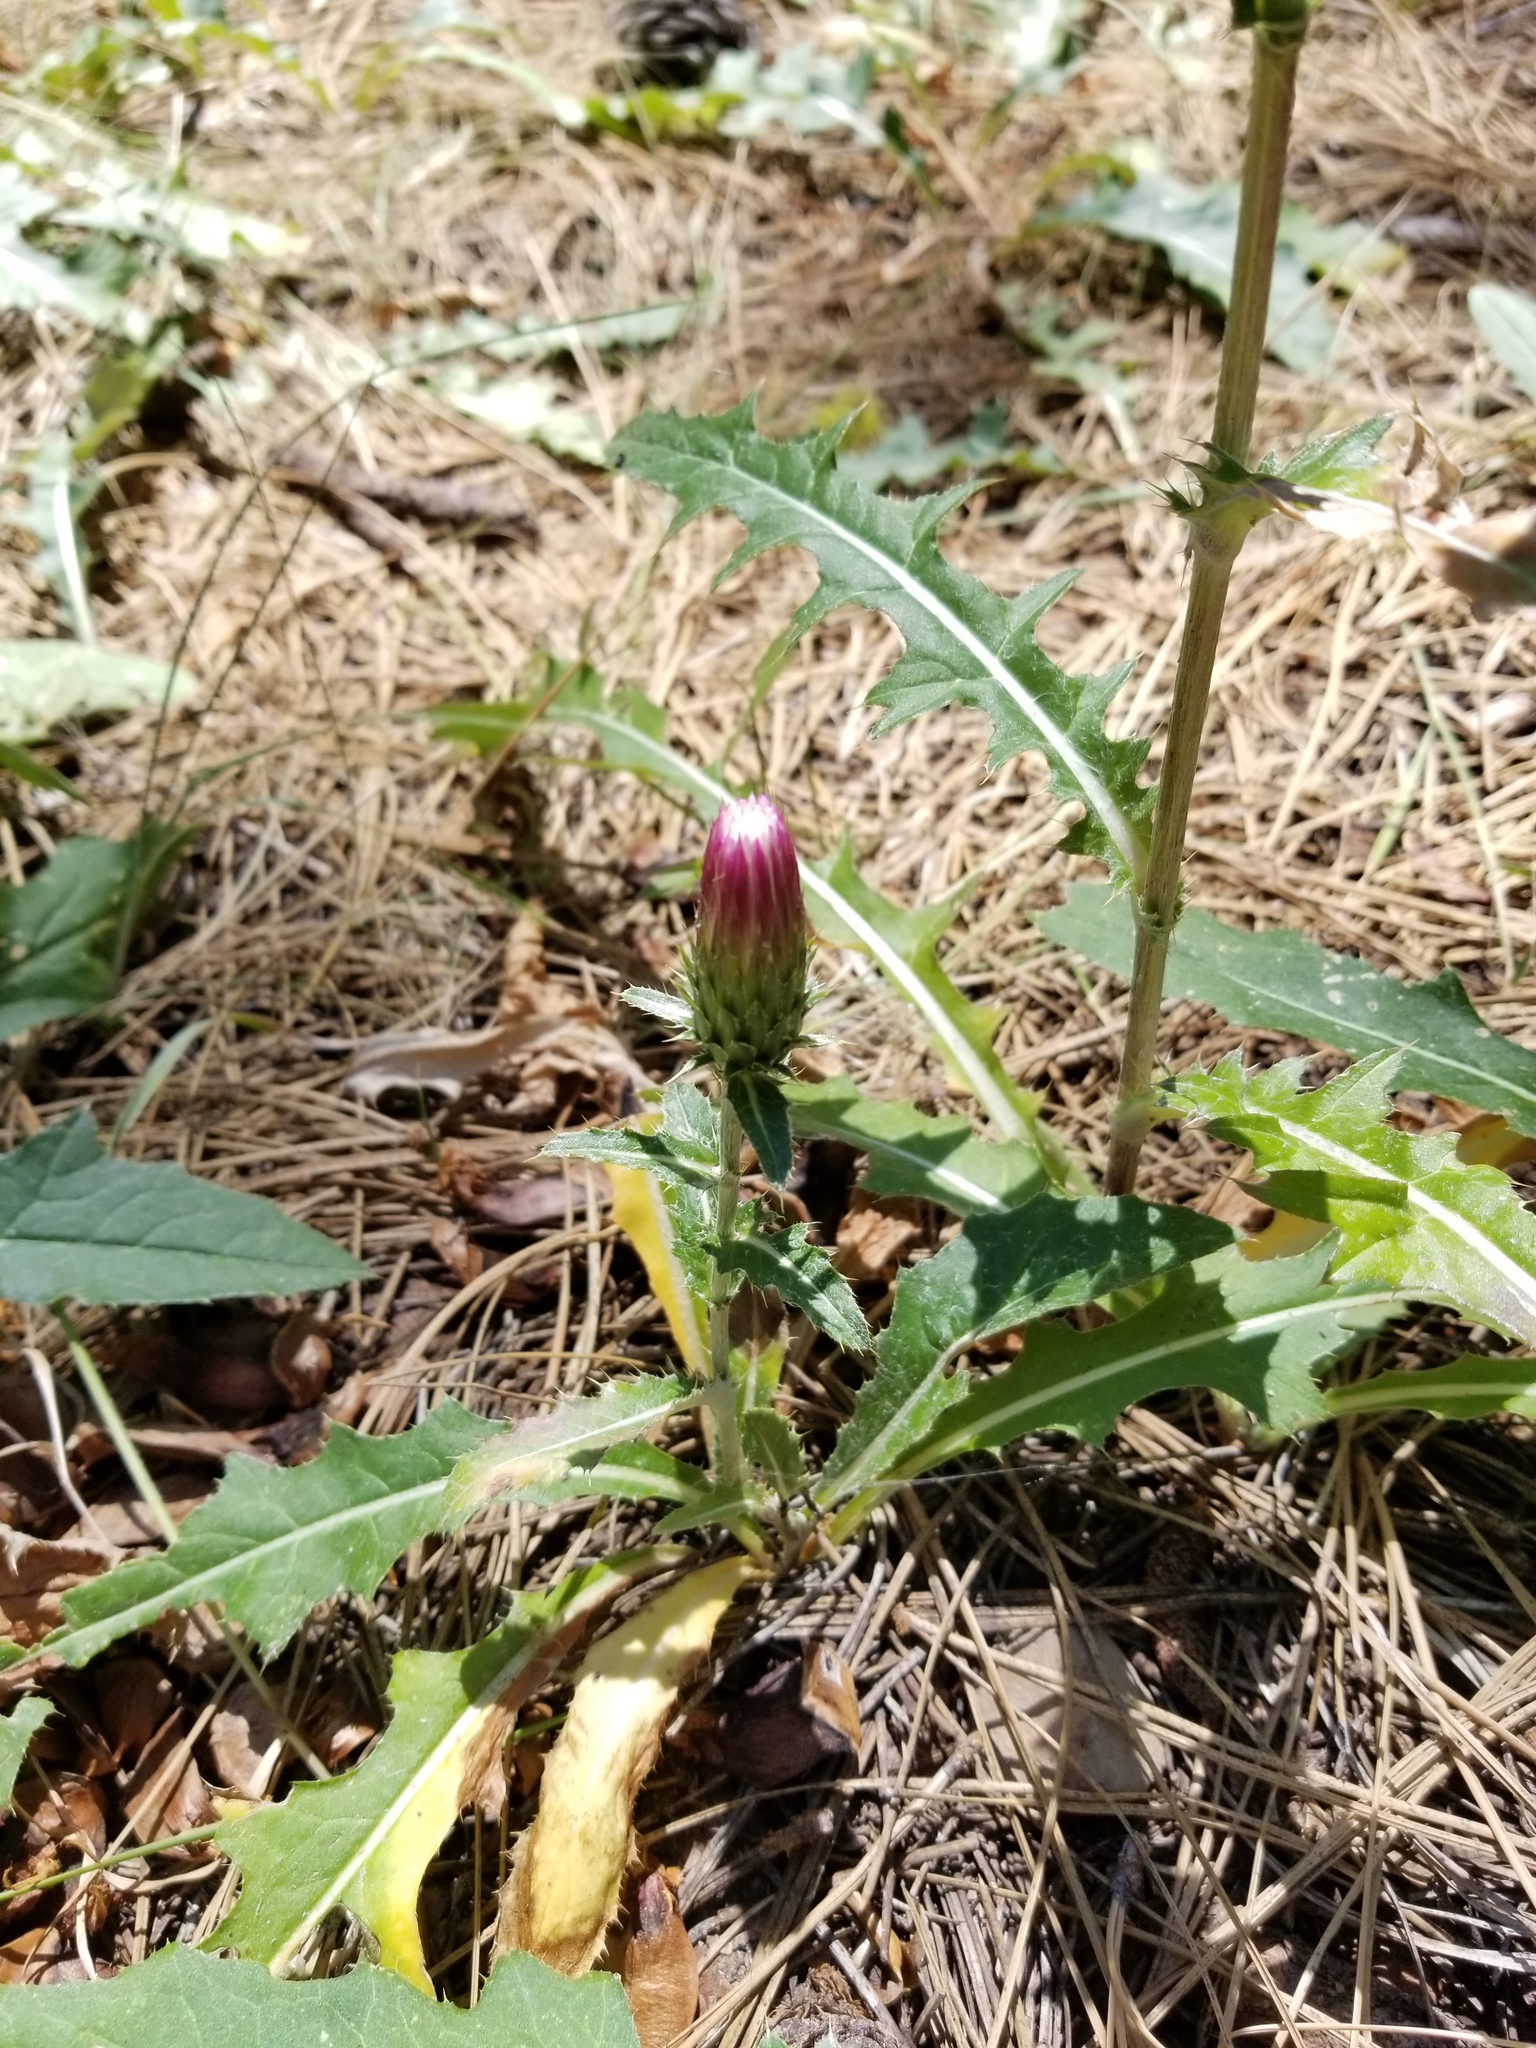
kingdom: Plantae
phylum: Tracheophyta
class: Magnoliopsida
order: Asterales
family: Asteraceae
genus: Cirsium
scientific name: Cirsium andersonii
